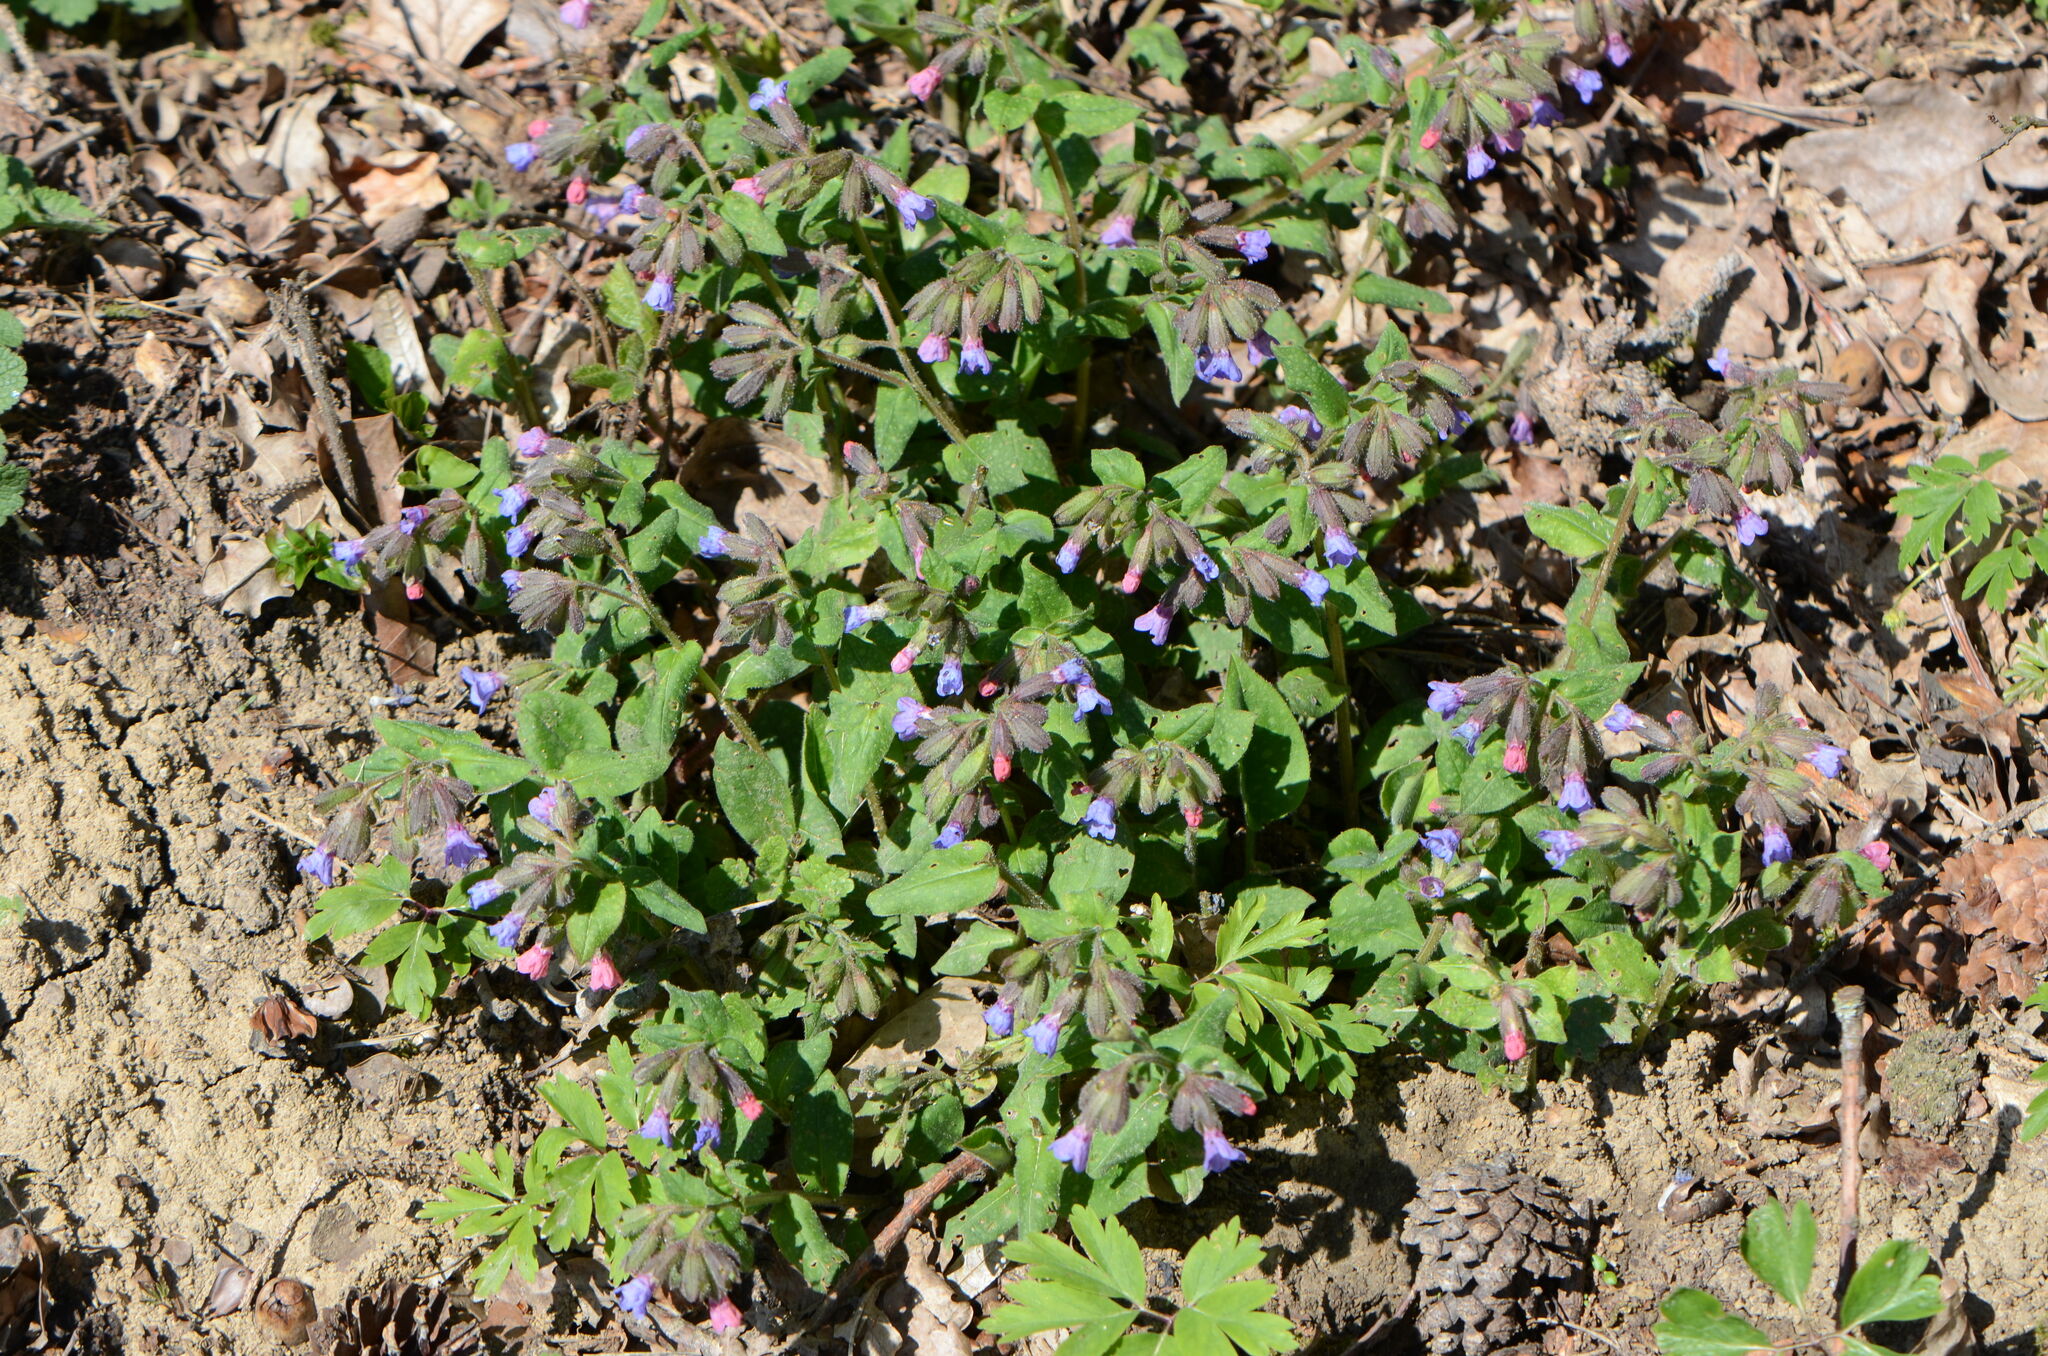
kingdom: Plantae
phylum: Tracheophyta
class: Magnoliopsida
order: Boraginales
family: Boraginaceae
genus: Pulmonaria
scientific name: Pulmonaria officinalis
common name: Lungwort
